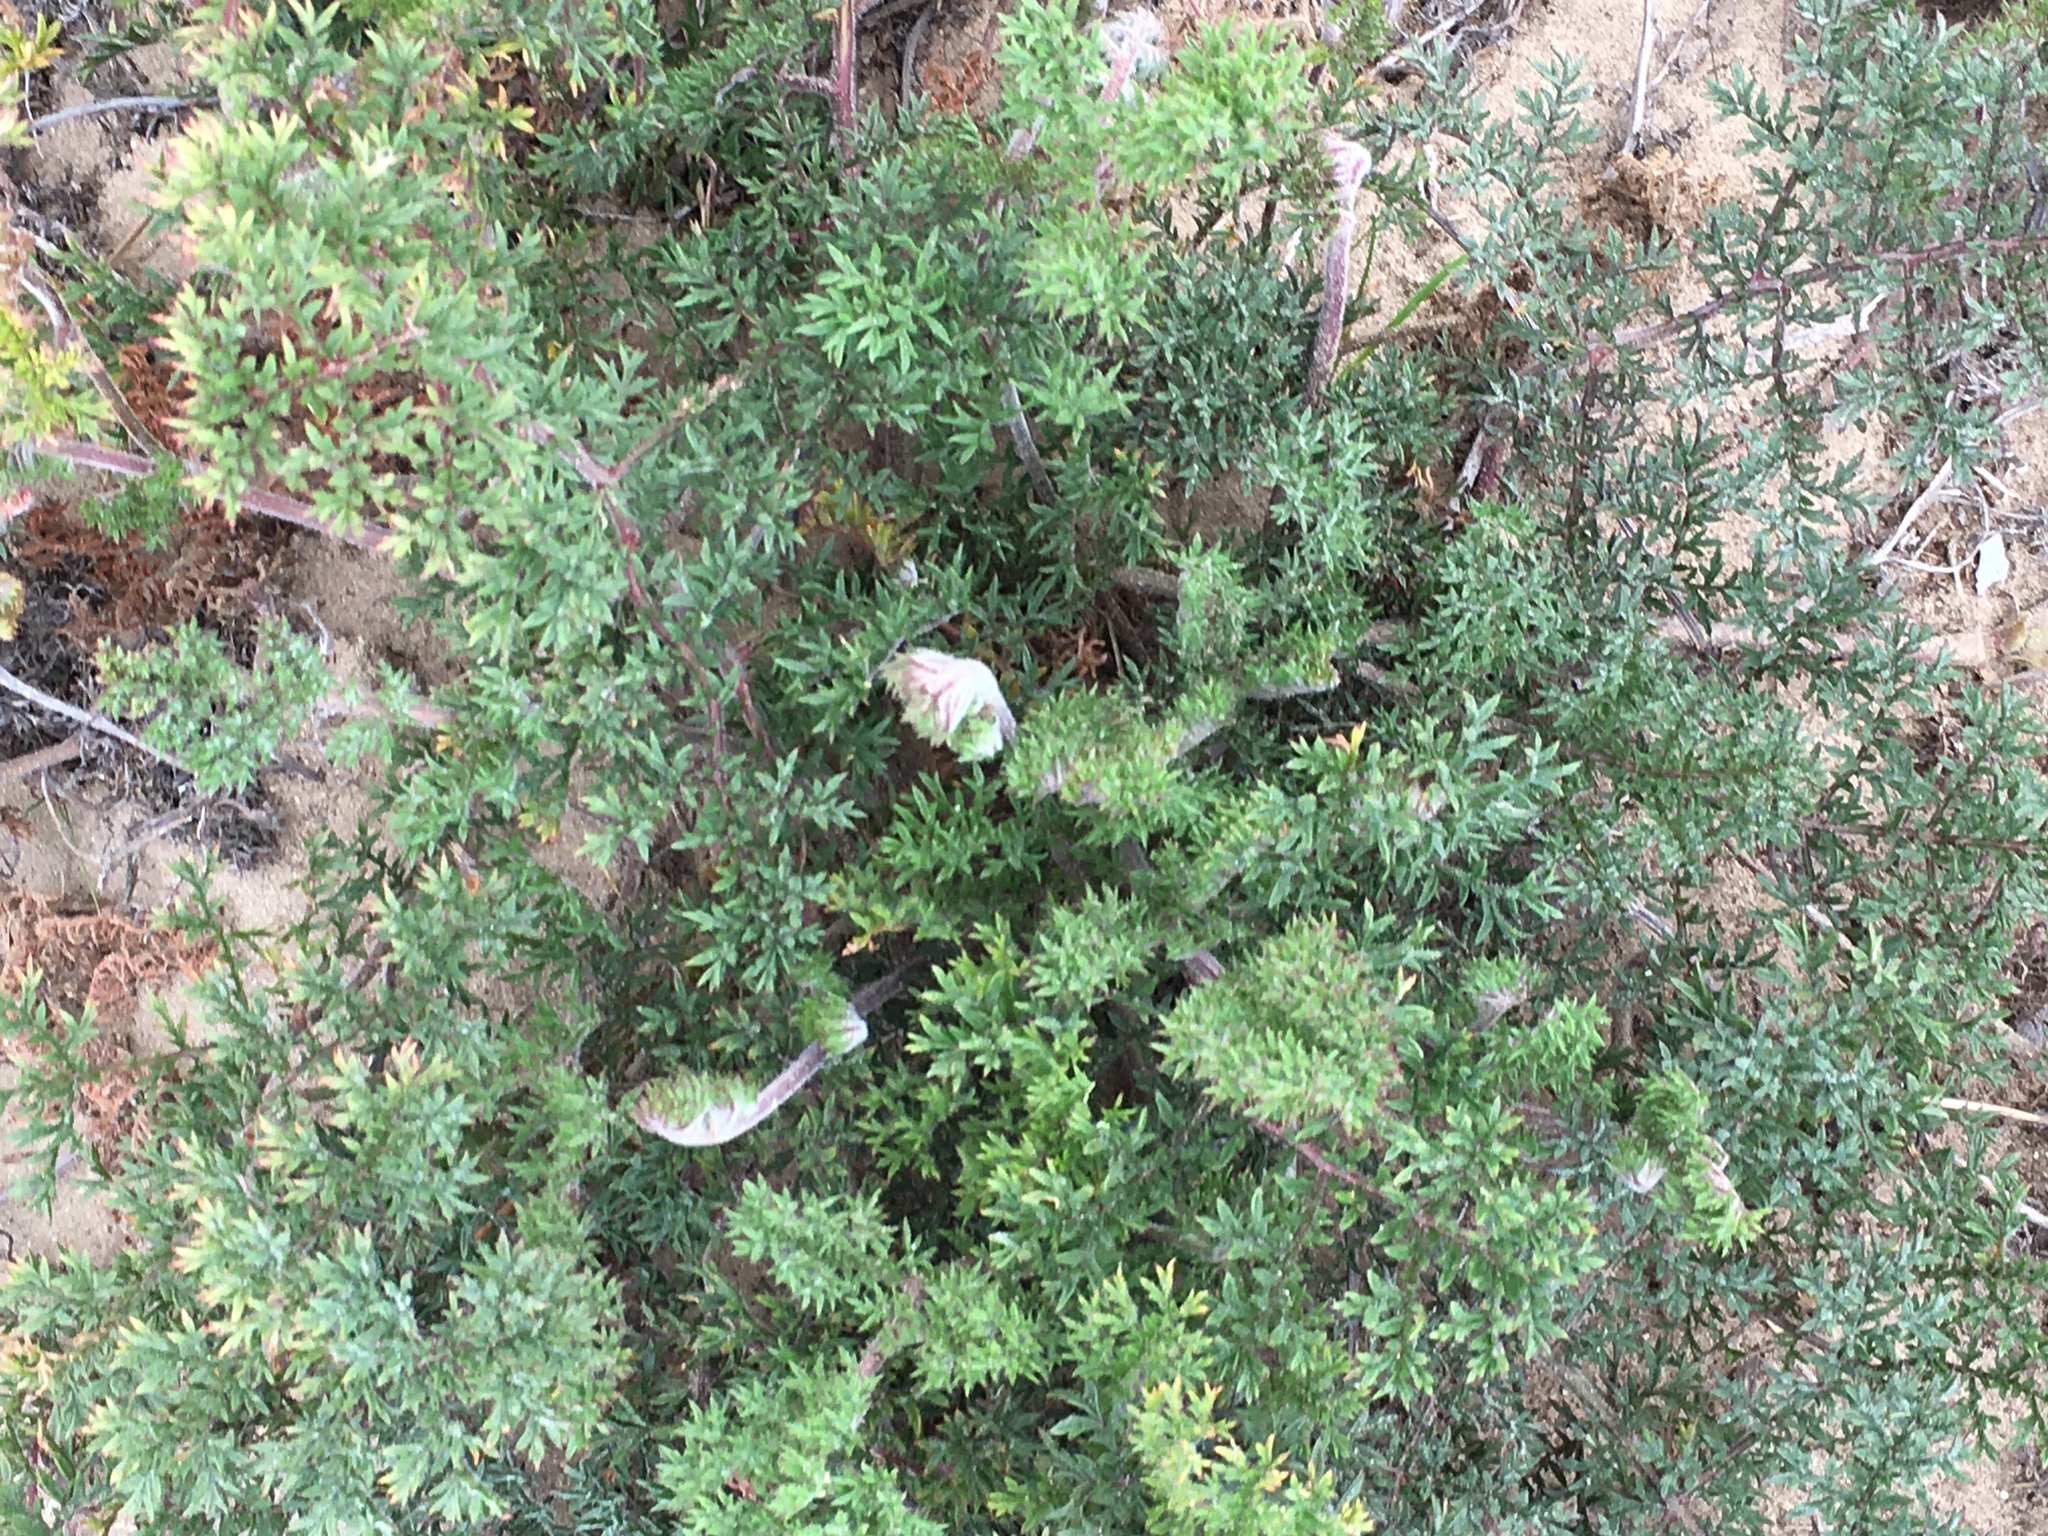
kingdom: Plantae
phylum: Tracheophyta
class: Magnoliopsida
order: Geraniales
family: Geraniaceae
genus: Pelargonium
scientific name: Pelargonium triste
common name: Night-scent pelargonium
